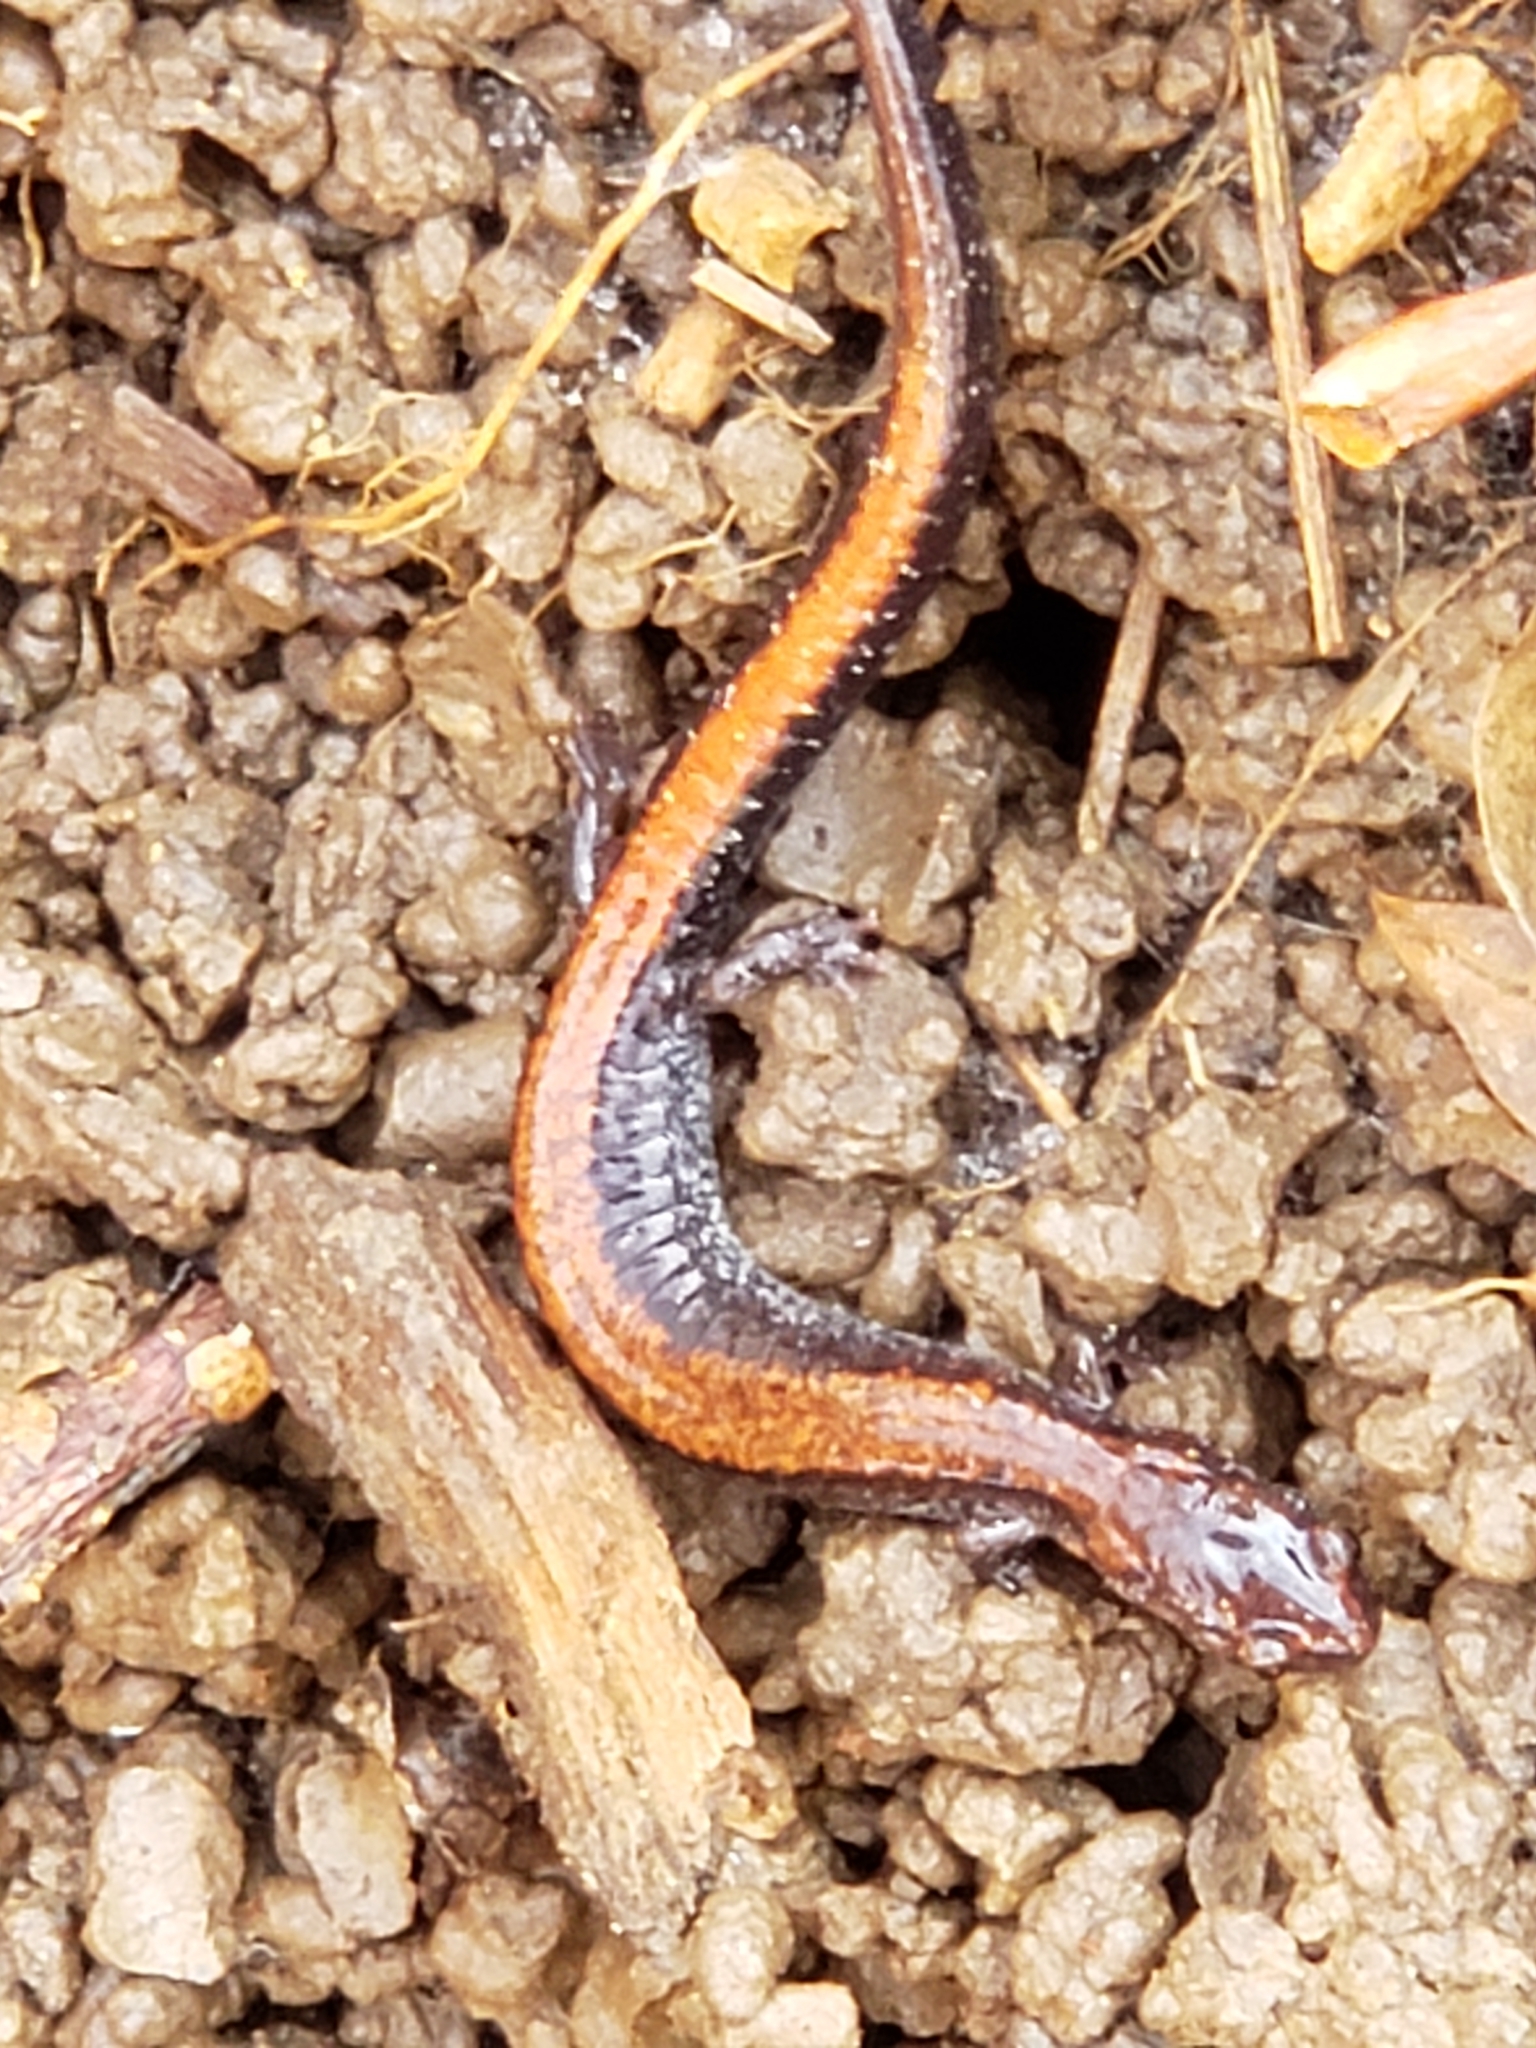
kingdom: Animalia
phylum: Chordata
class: Amphibia
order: Caudata
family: Plethodontidae
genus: Plethodon
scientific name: Plethodon cinereus
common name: Redback salamander
